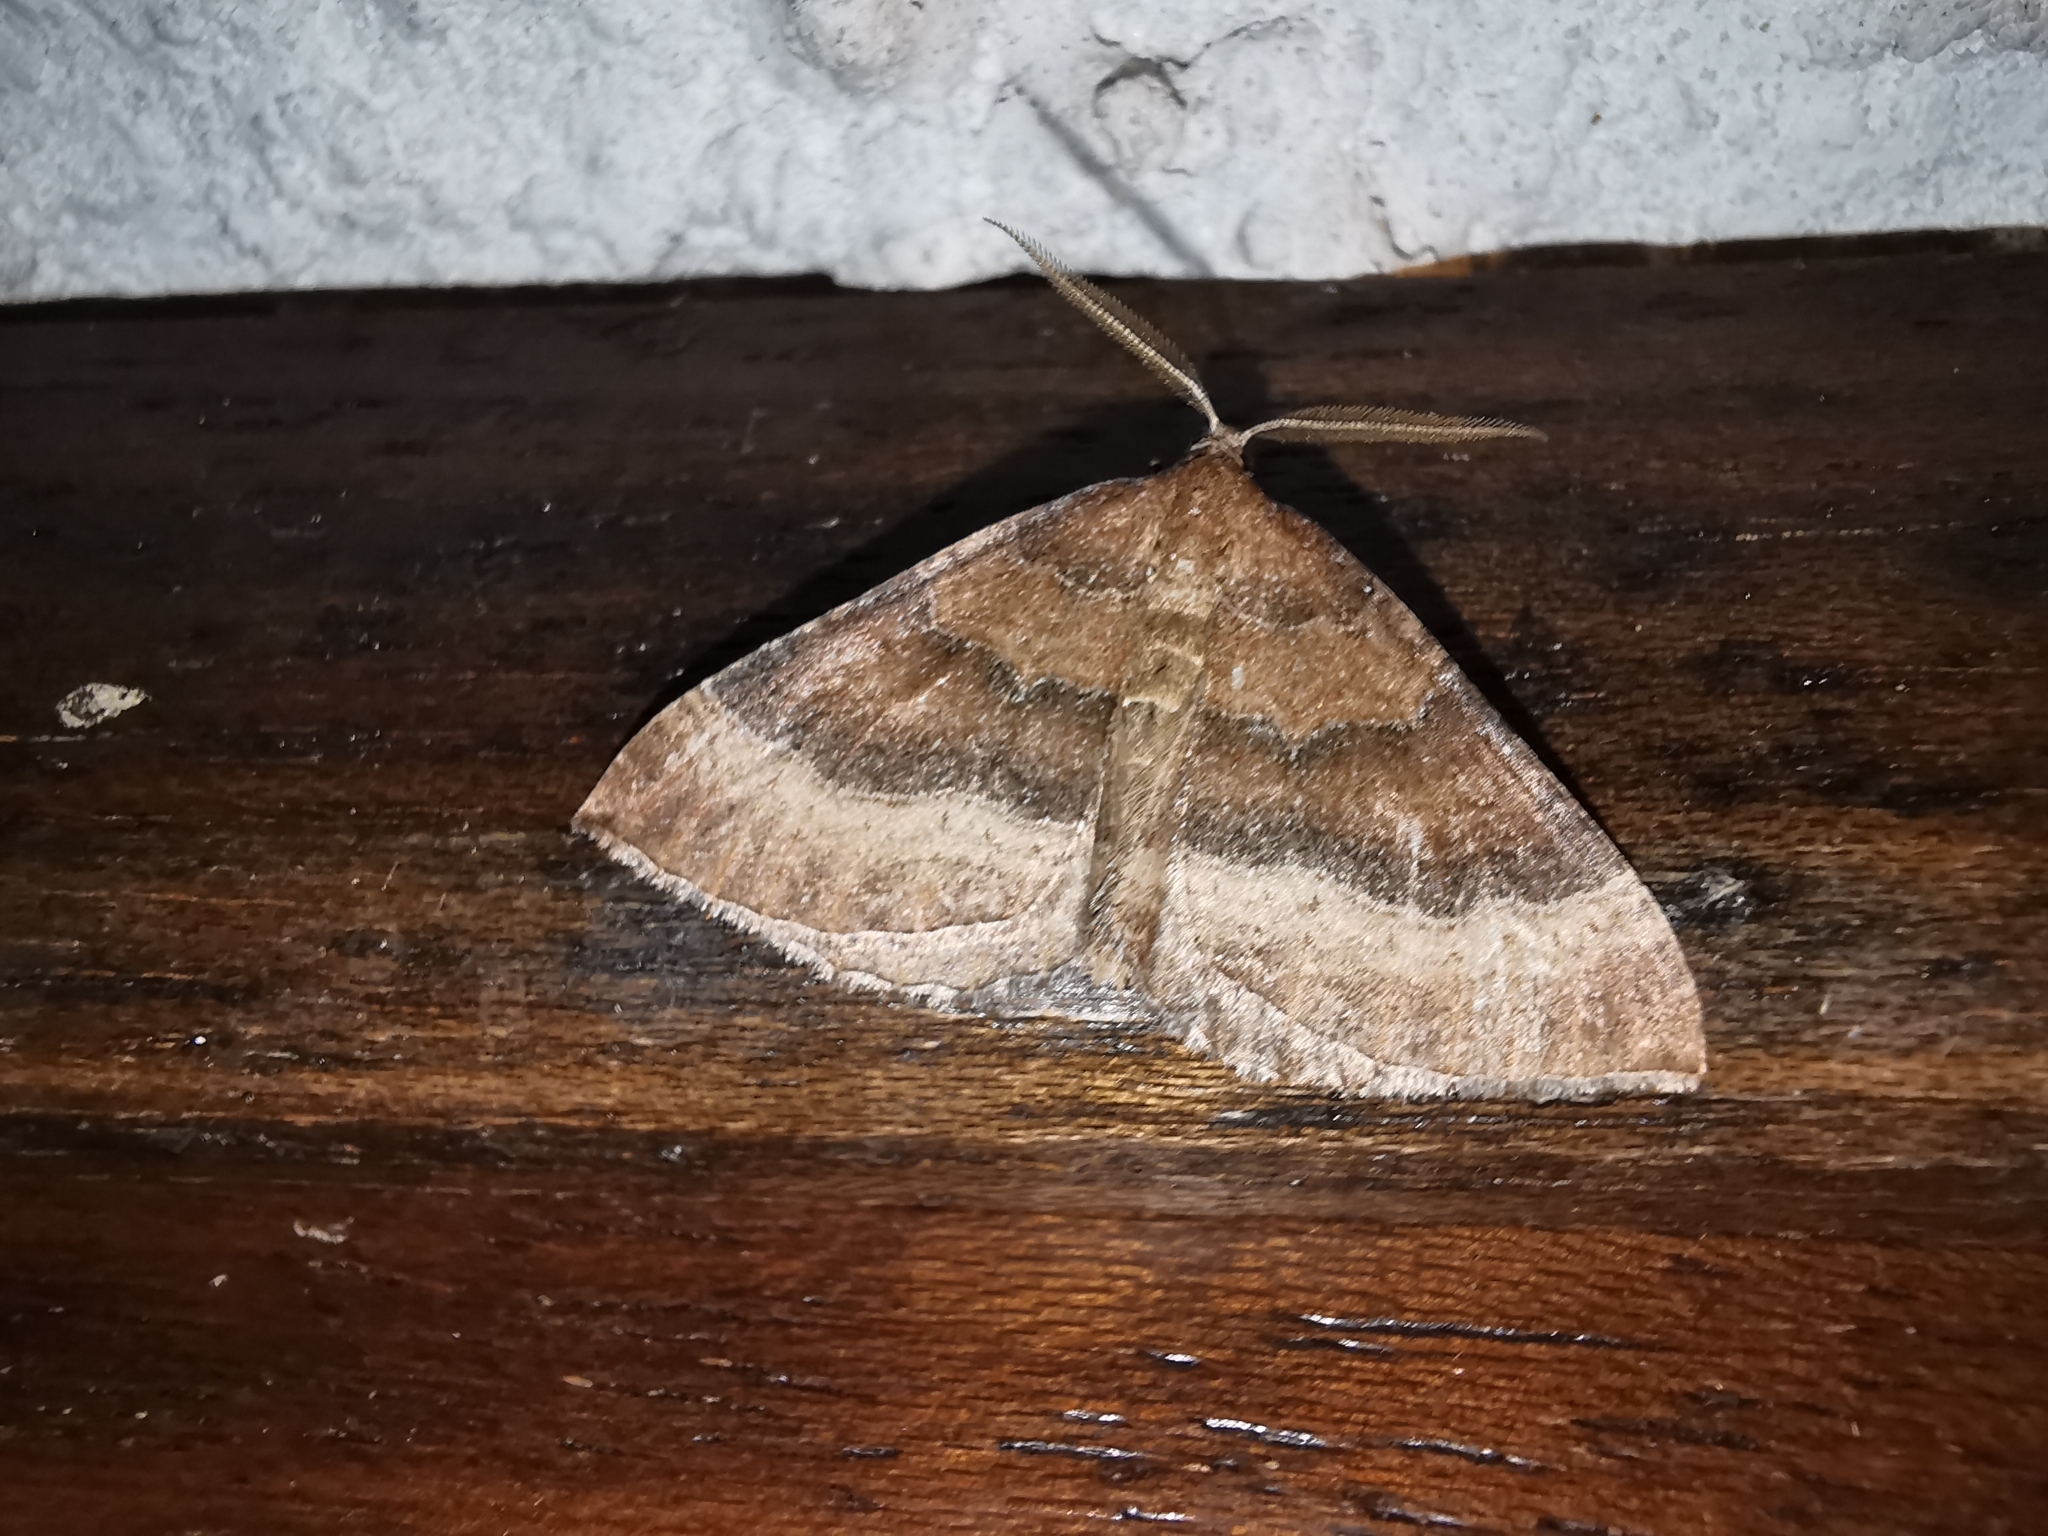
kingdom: Animalia
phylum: Arthropoda
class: Insecta
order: Lepidoptera
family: Geometridae
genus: Larentia
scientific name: Larentia clavaria
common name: Mallow
